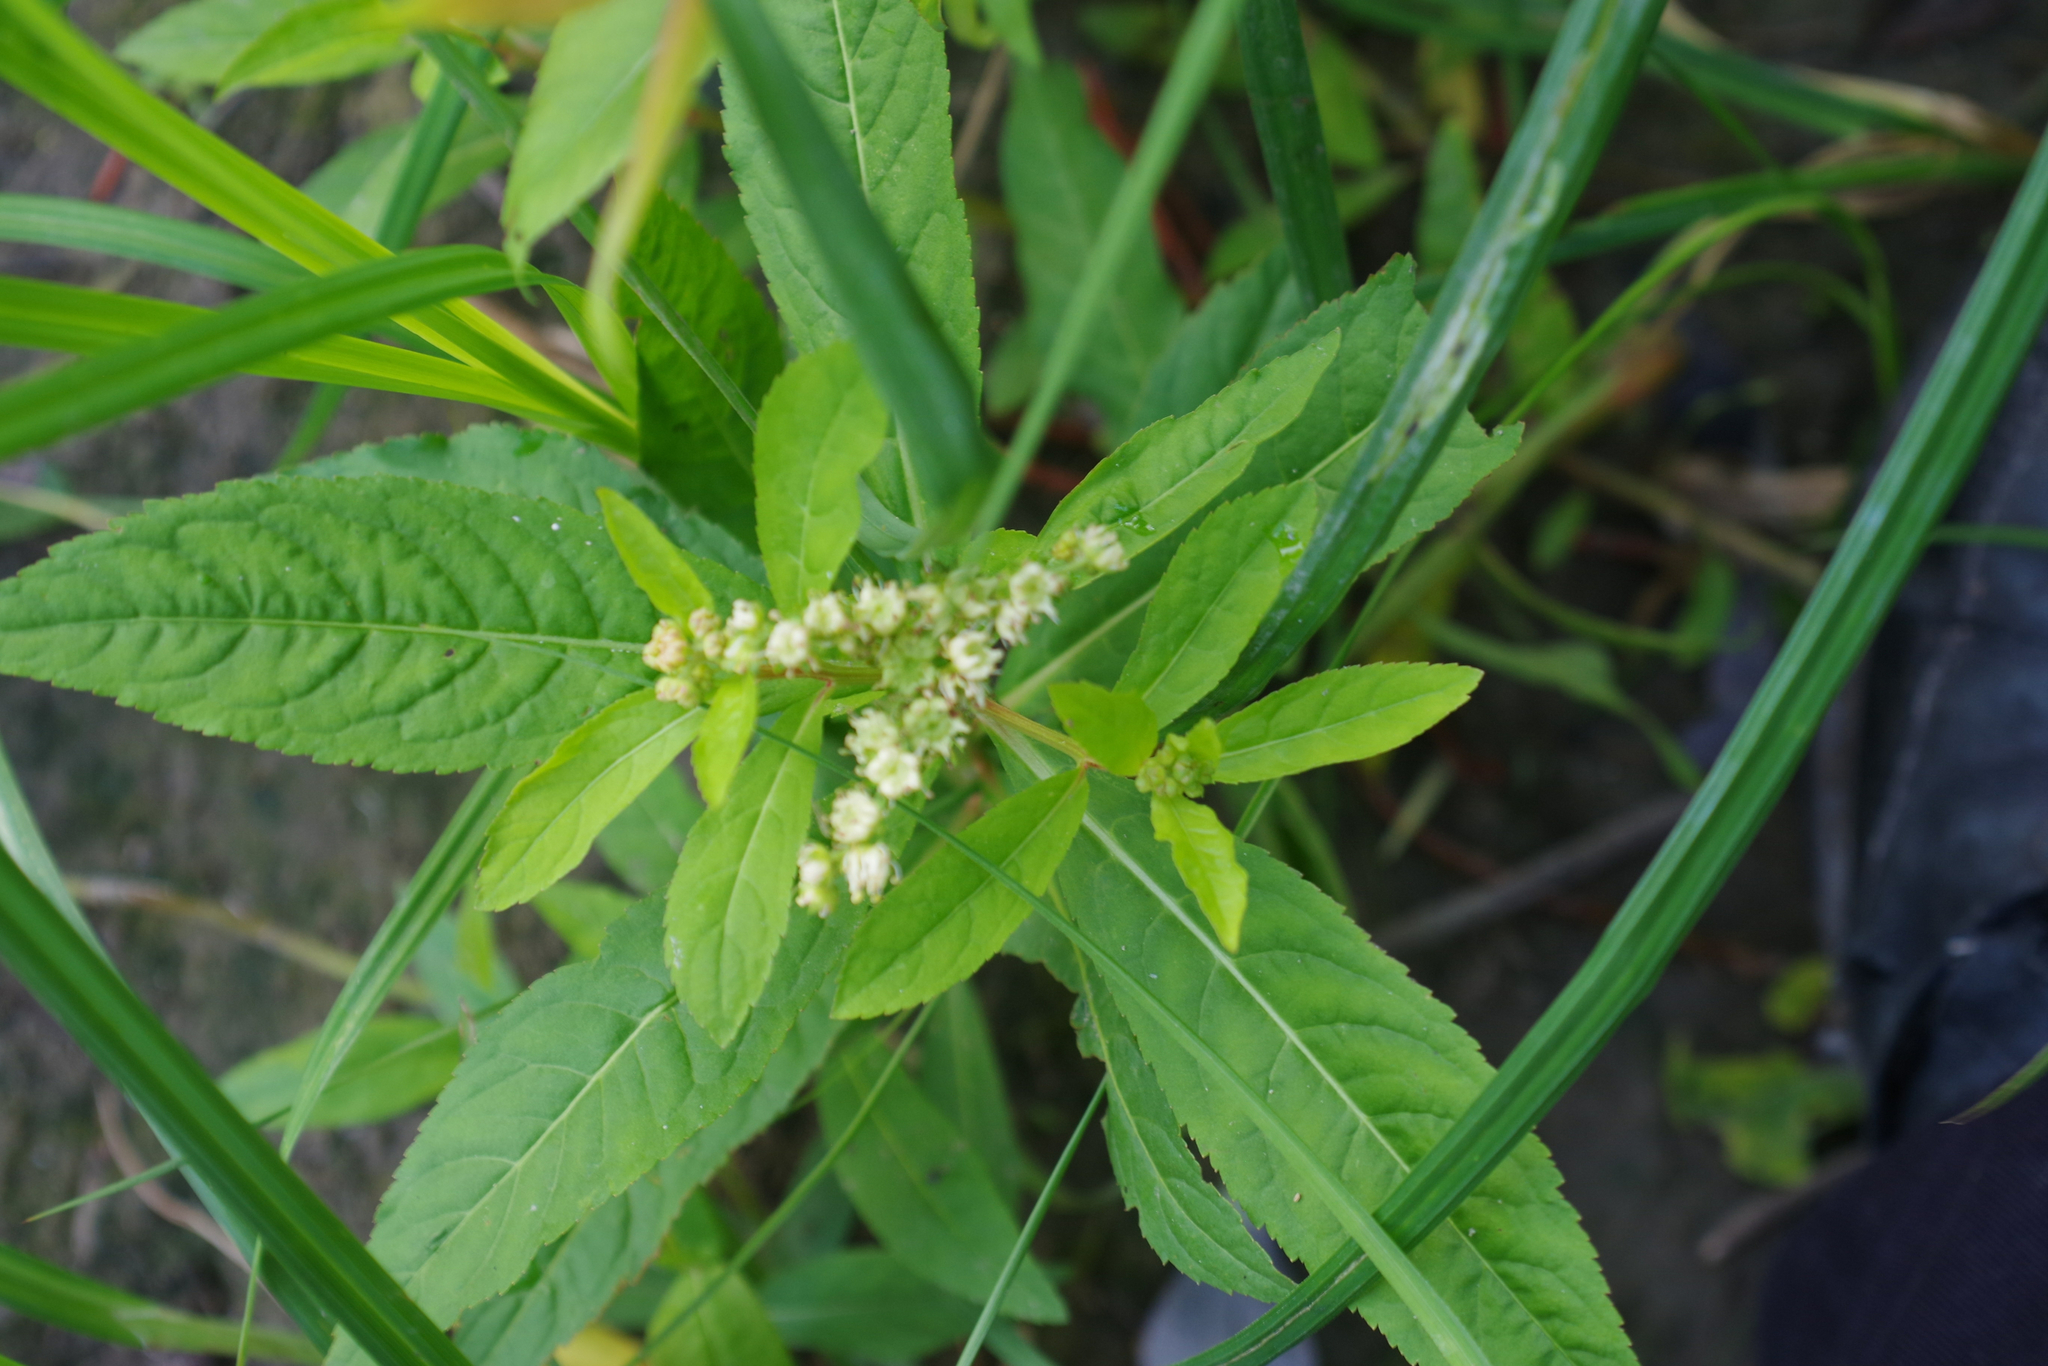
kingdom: Plantae
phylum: Tracheophyta
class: Magnoliopsida
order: Saxifragales
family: Penthoraceae
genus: Penthorum
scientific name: Penthorum sedoides
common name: Ditch stonecrop
